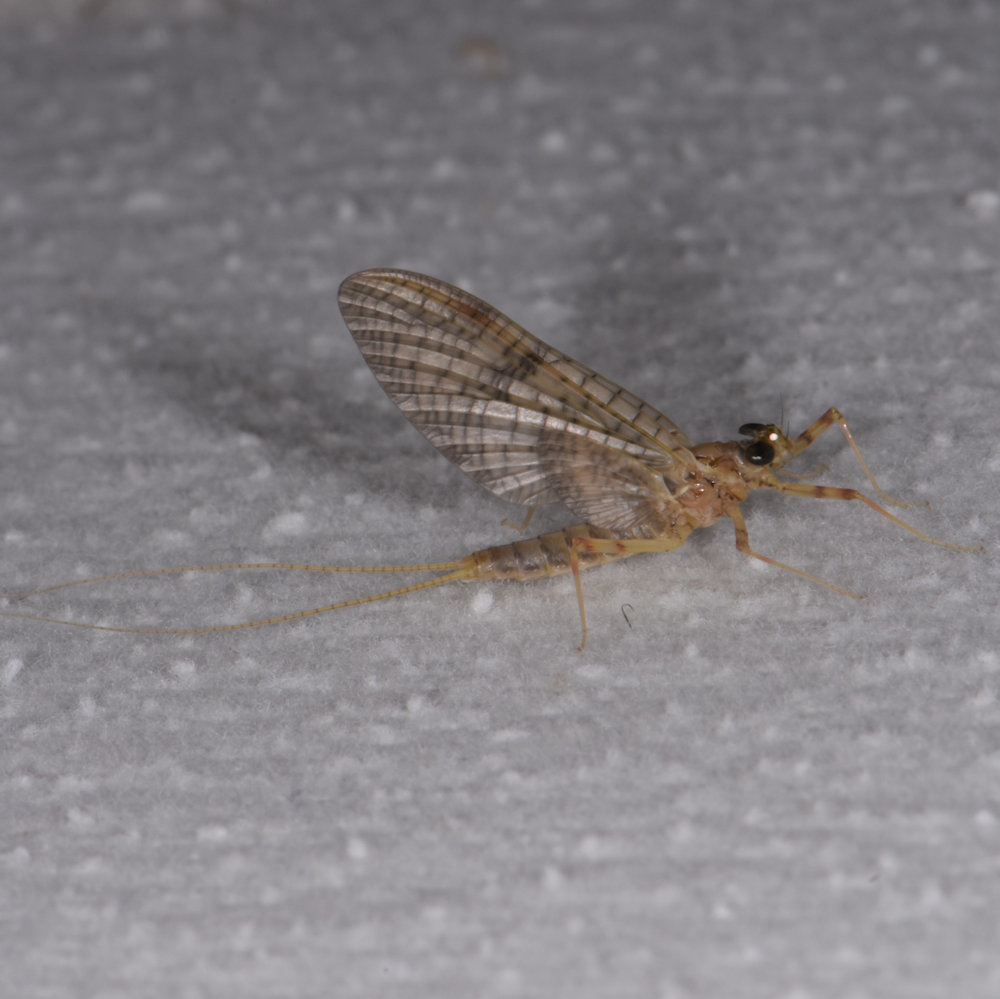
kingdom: Animalia
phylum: Arthropoda
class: Insecta
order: Ephemeroptera
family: Heptageniidae
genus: Stenonema
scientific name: Stenonema femoratum
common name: Dark cahill
